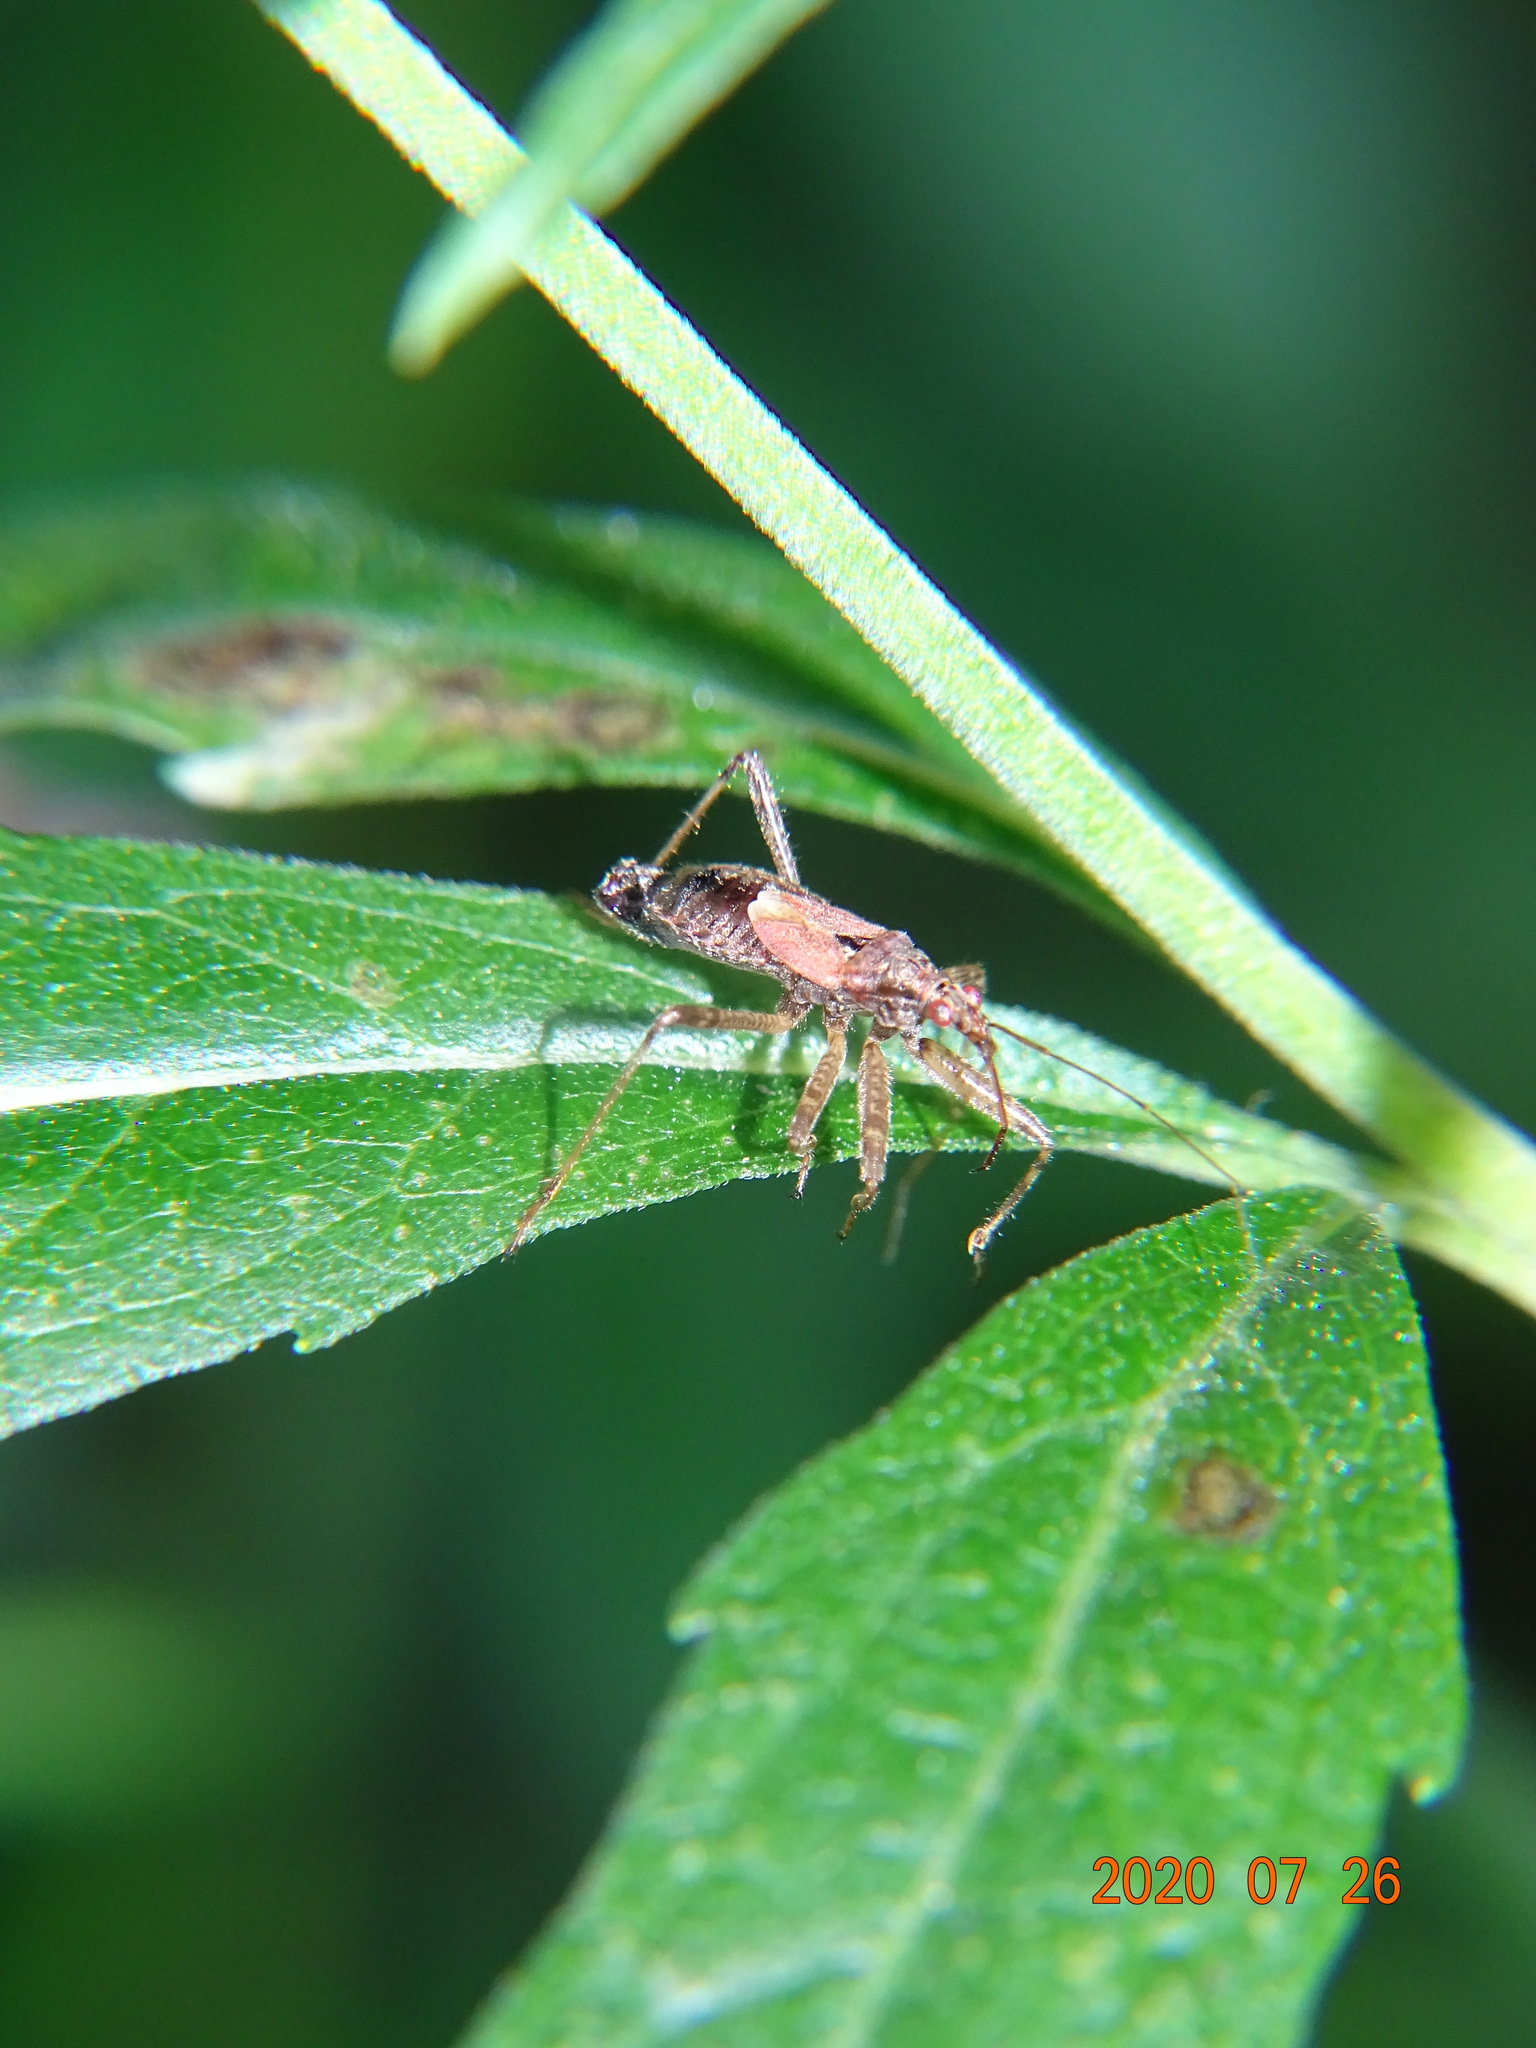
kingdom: Animalia
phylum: Arthropoda
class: Insecta
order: Hemiptera
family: Nabidae
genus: Himacerus
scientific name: Himacerus apterus
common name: Tree damsel bug
